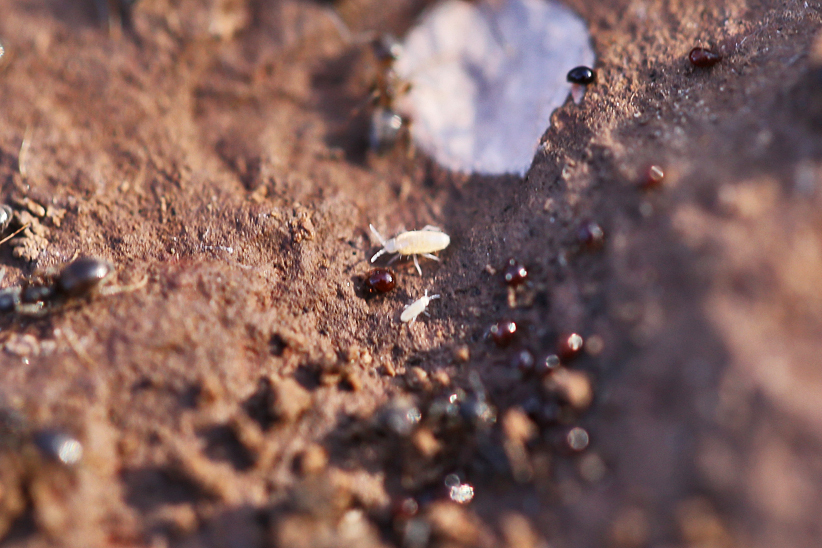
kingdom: Animalia
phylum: Arthropoda
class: Collembola
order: Entomobryomorpha
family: Paronellidae
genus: Cyphoderus
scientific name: Cyphoderus similis
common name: Springtail
